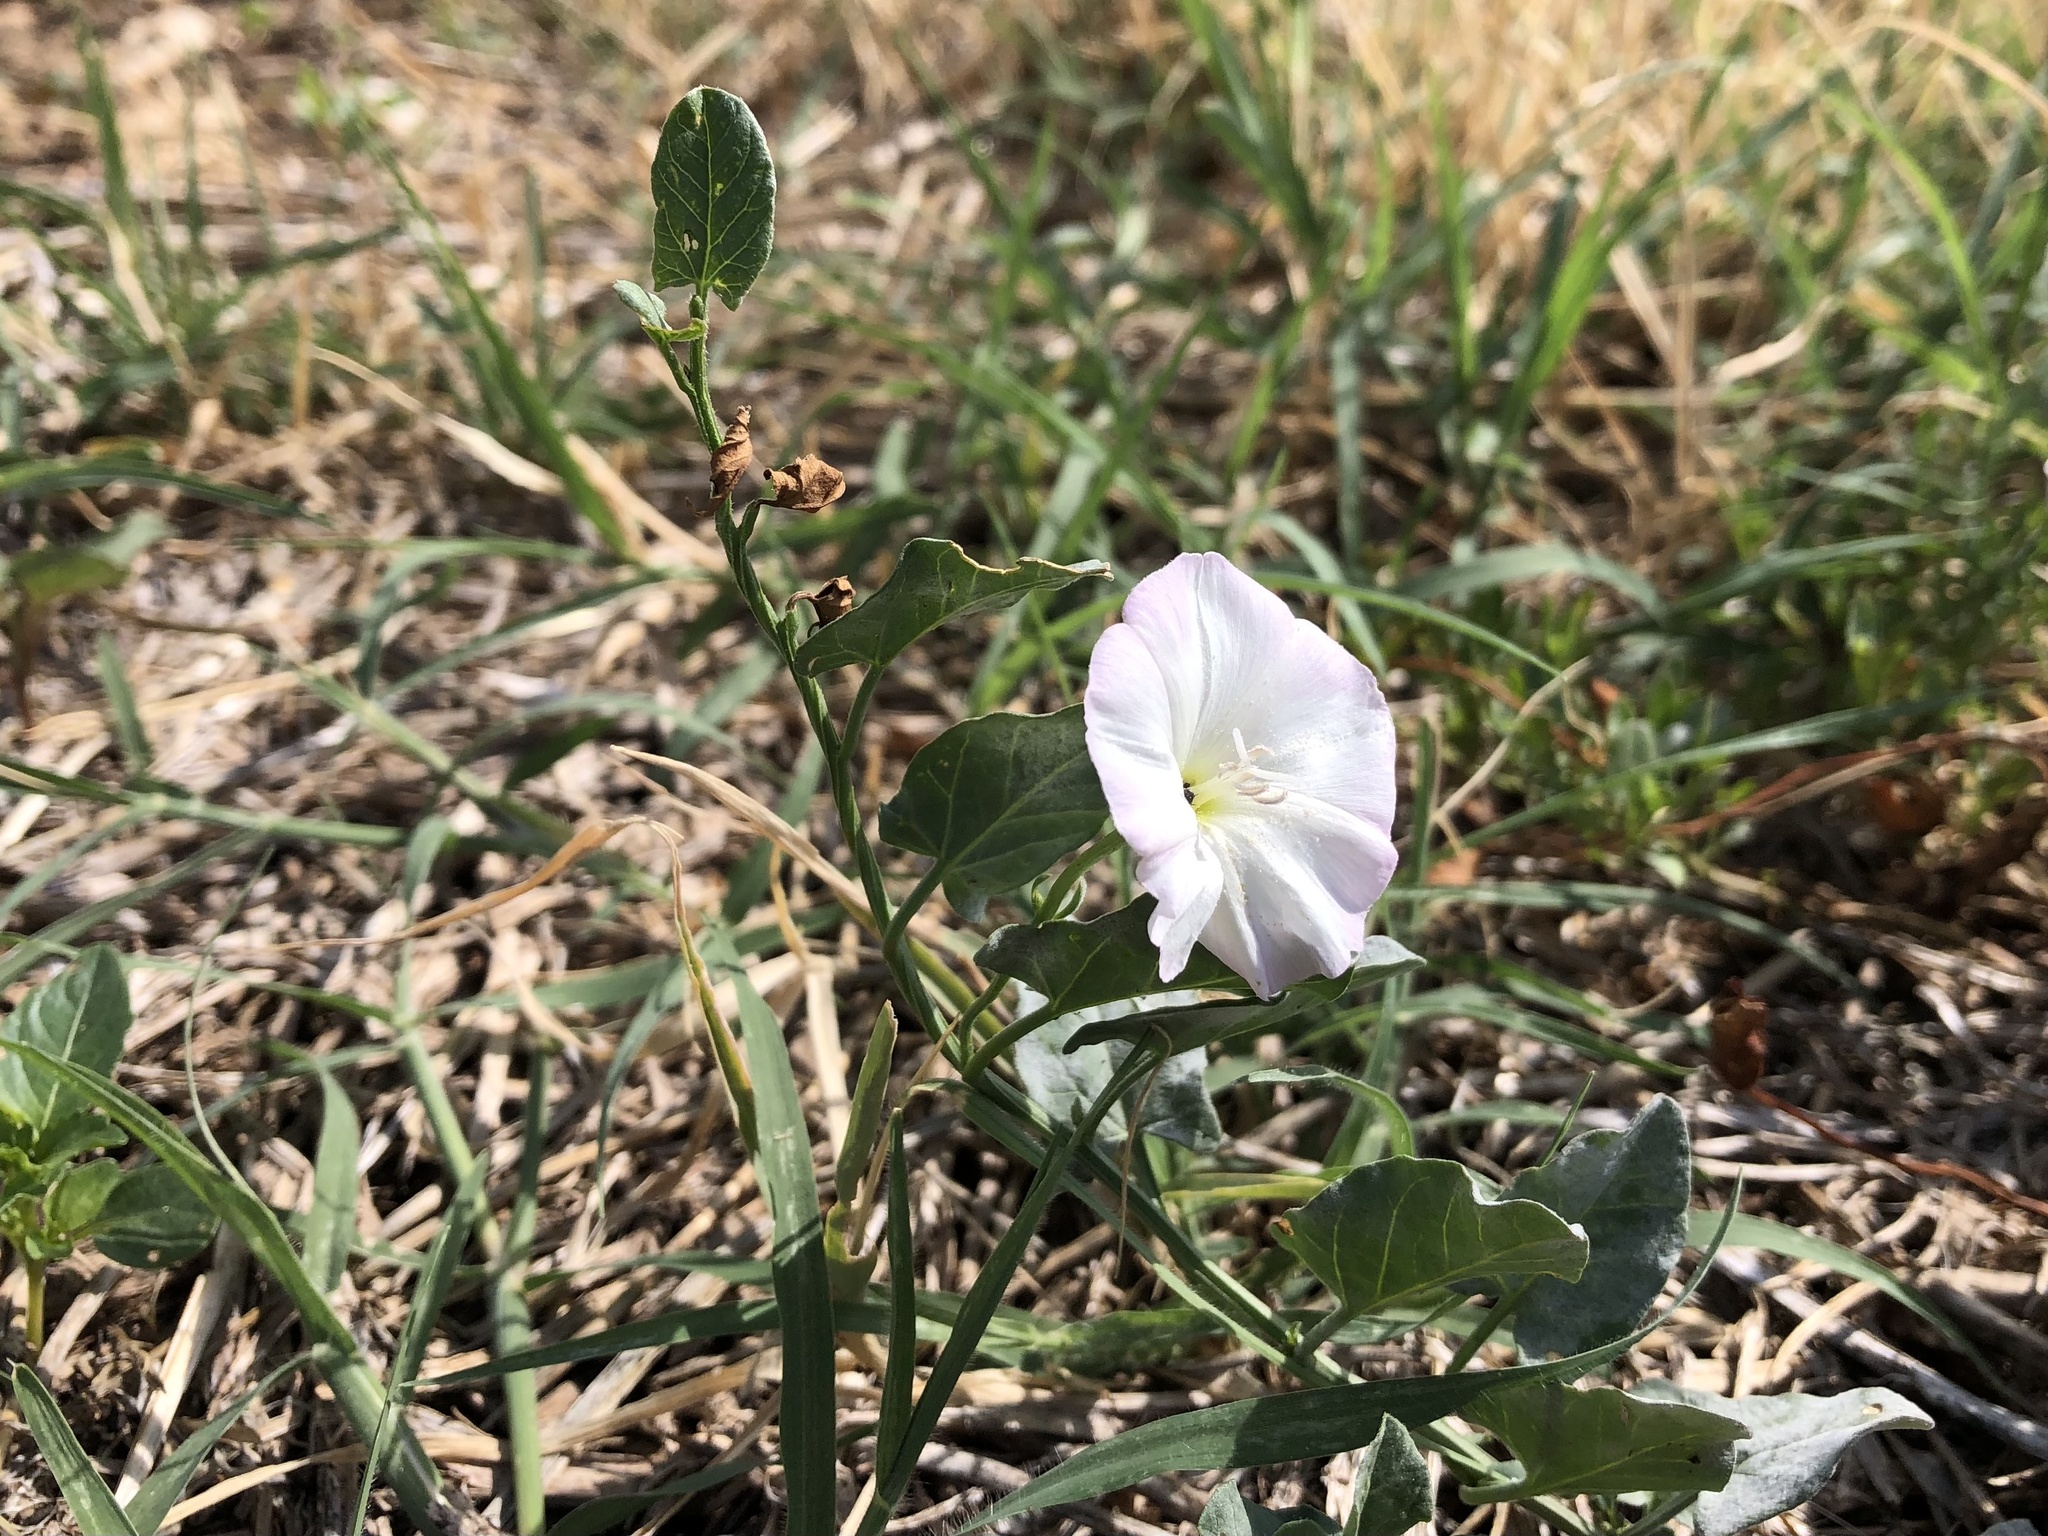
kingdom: Plantae
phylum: Tracheophyta
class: Magnoliopsida
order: Solanales
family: Convolvulaceae
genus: Convolvulus
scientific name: Convolvulus arvensis
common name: Field bindweed
